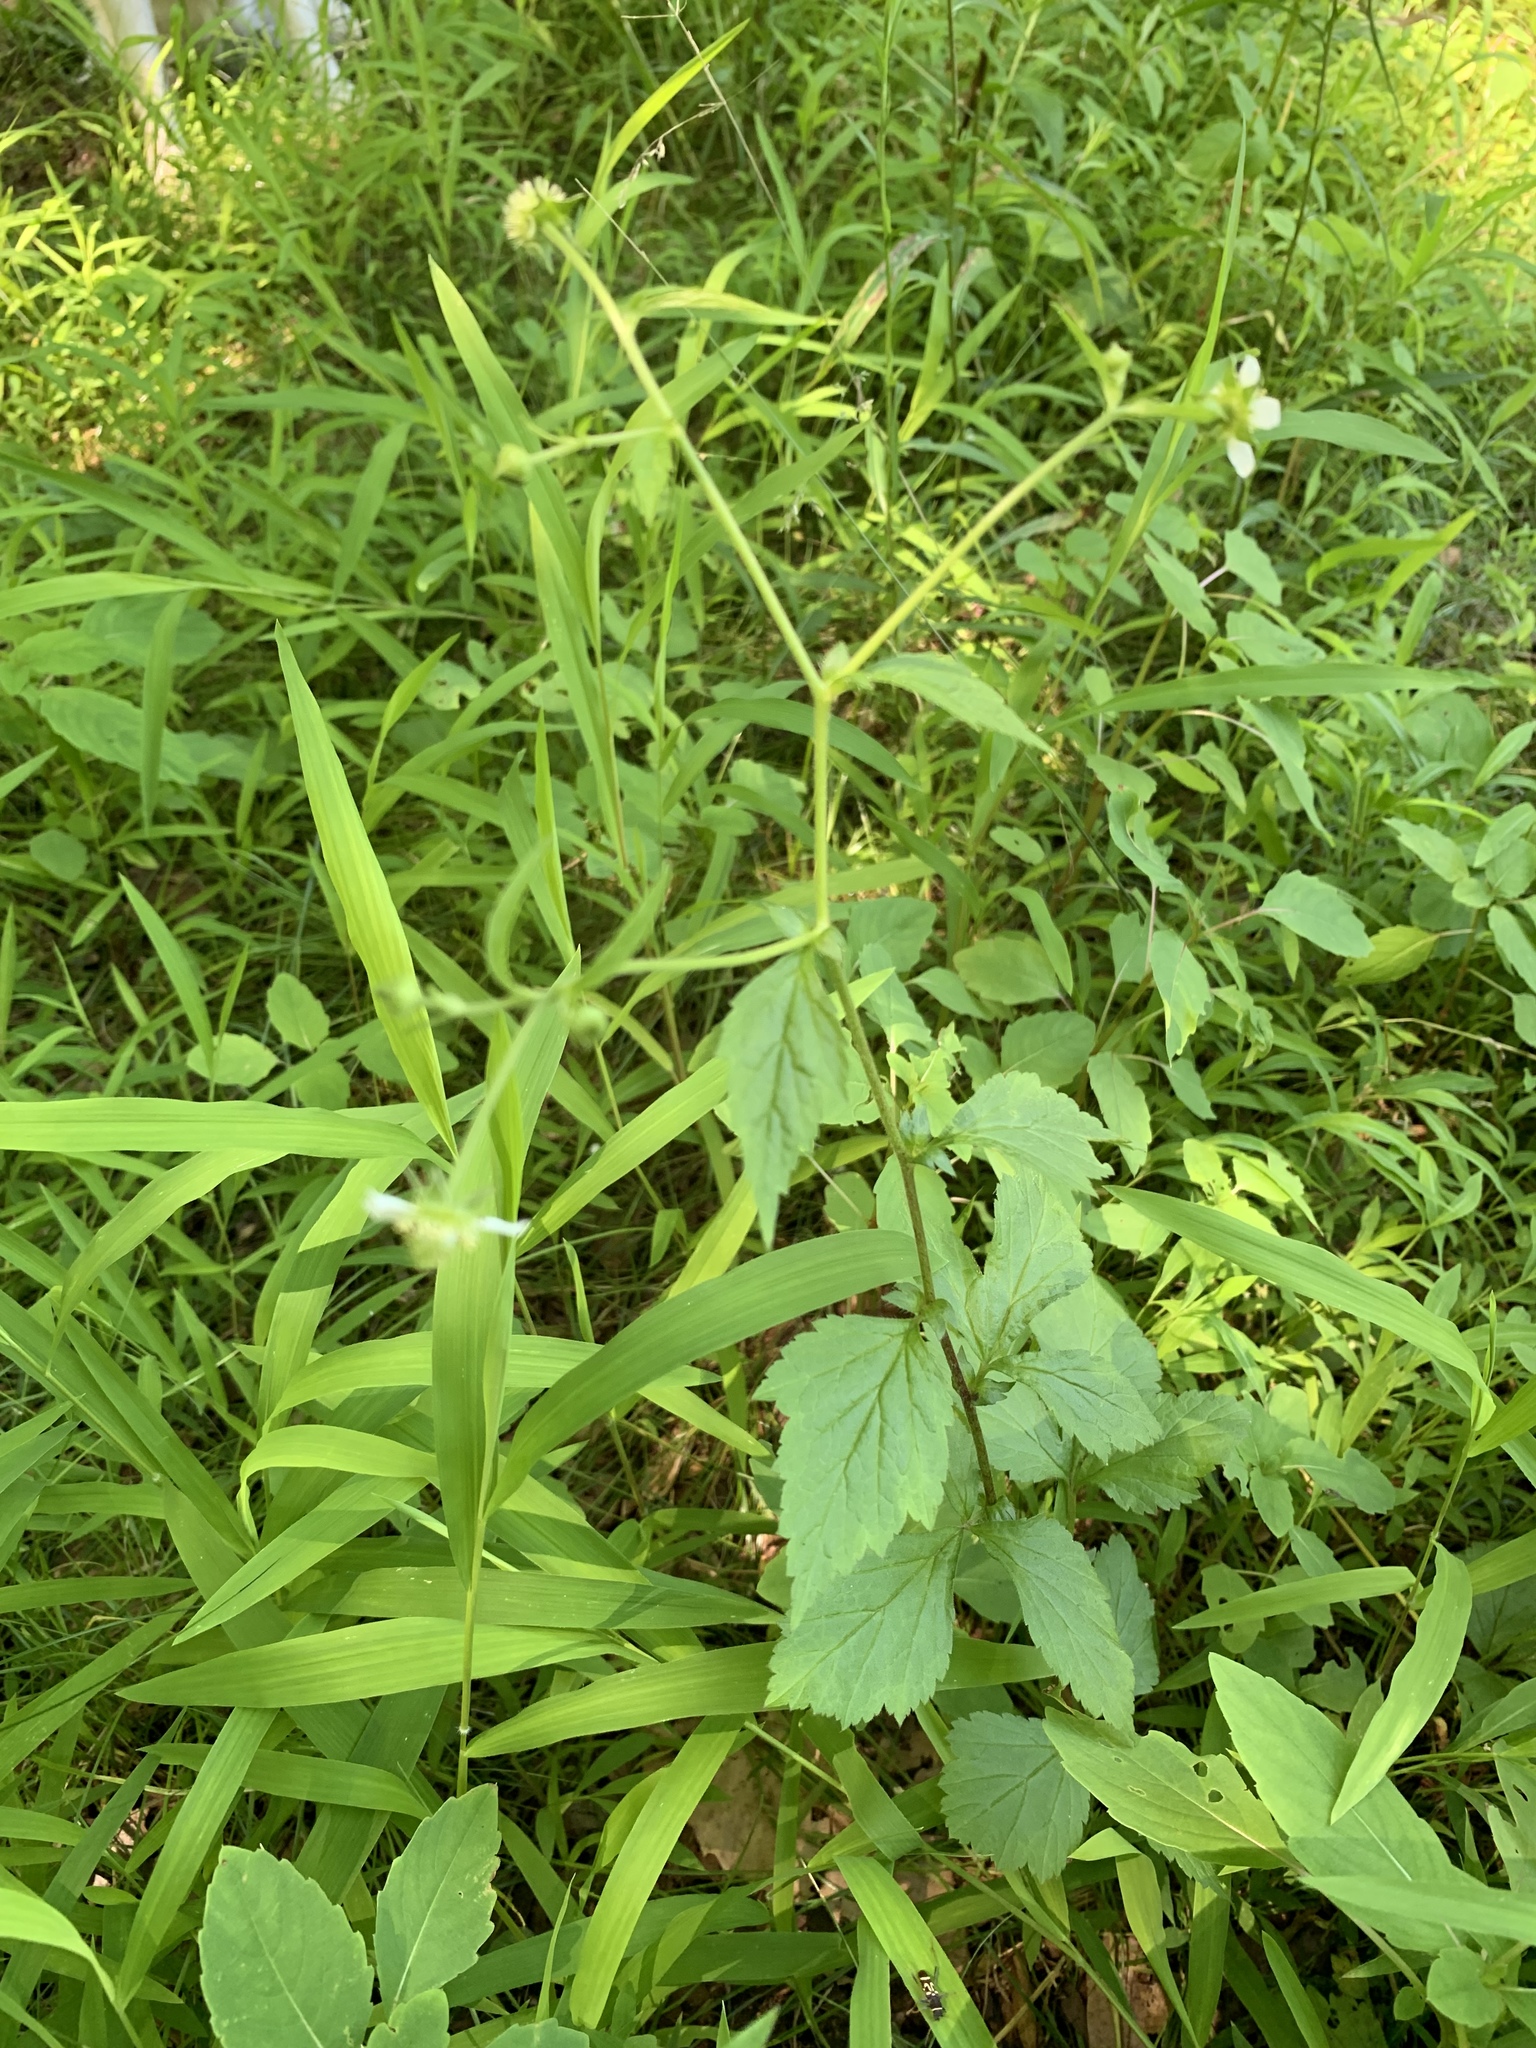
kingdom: Plantae
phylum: Tracheophyta
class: Magnoliopsida
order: Rosales
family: Rosaceae
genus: Geum
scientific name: Geum canadense
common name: White avens
